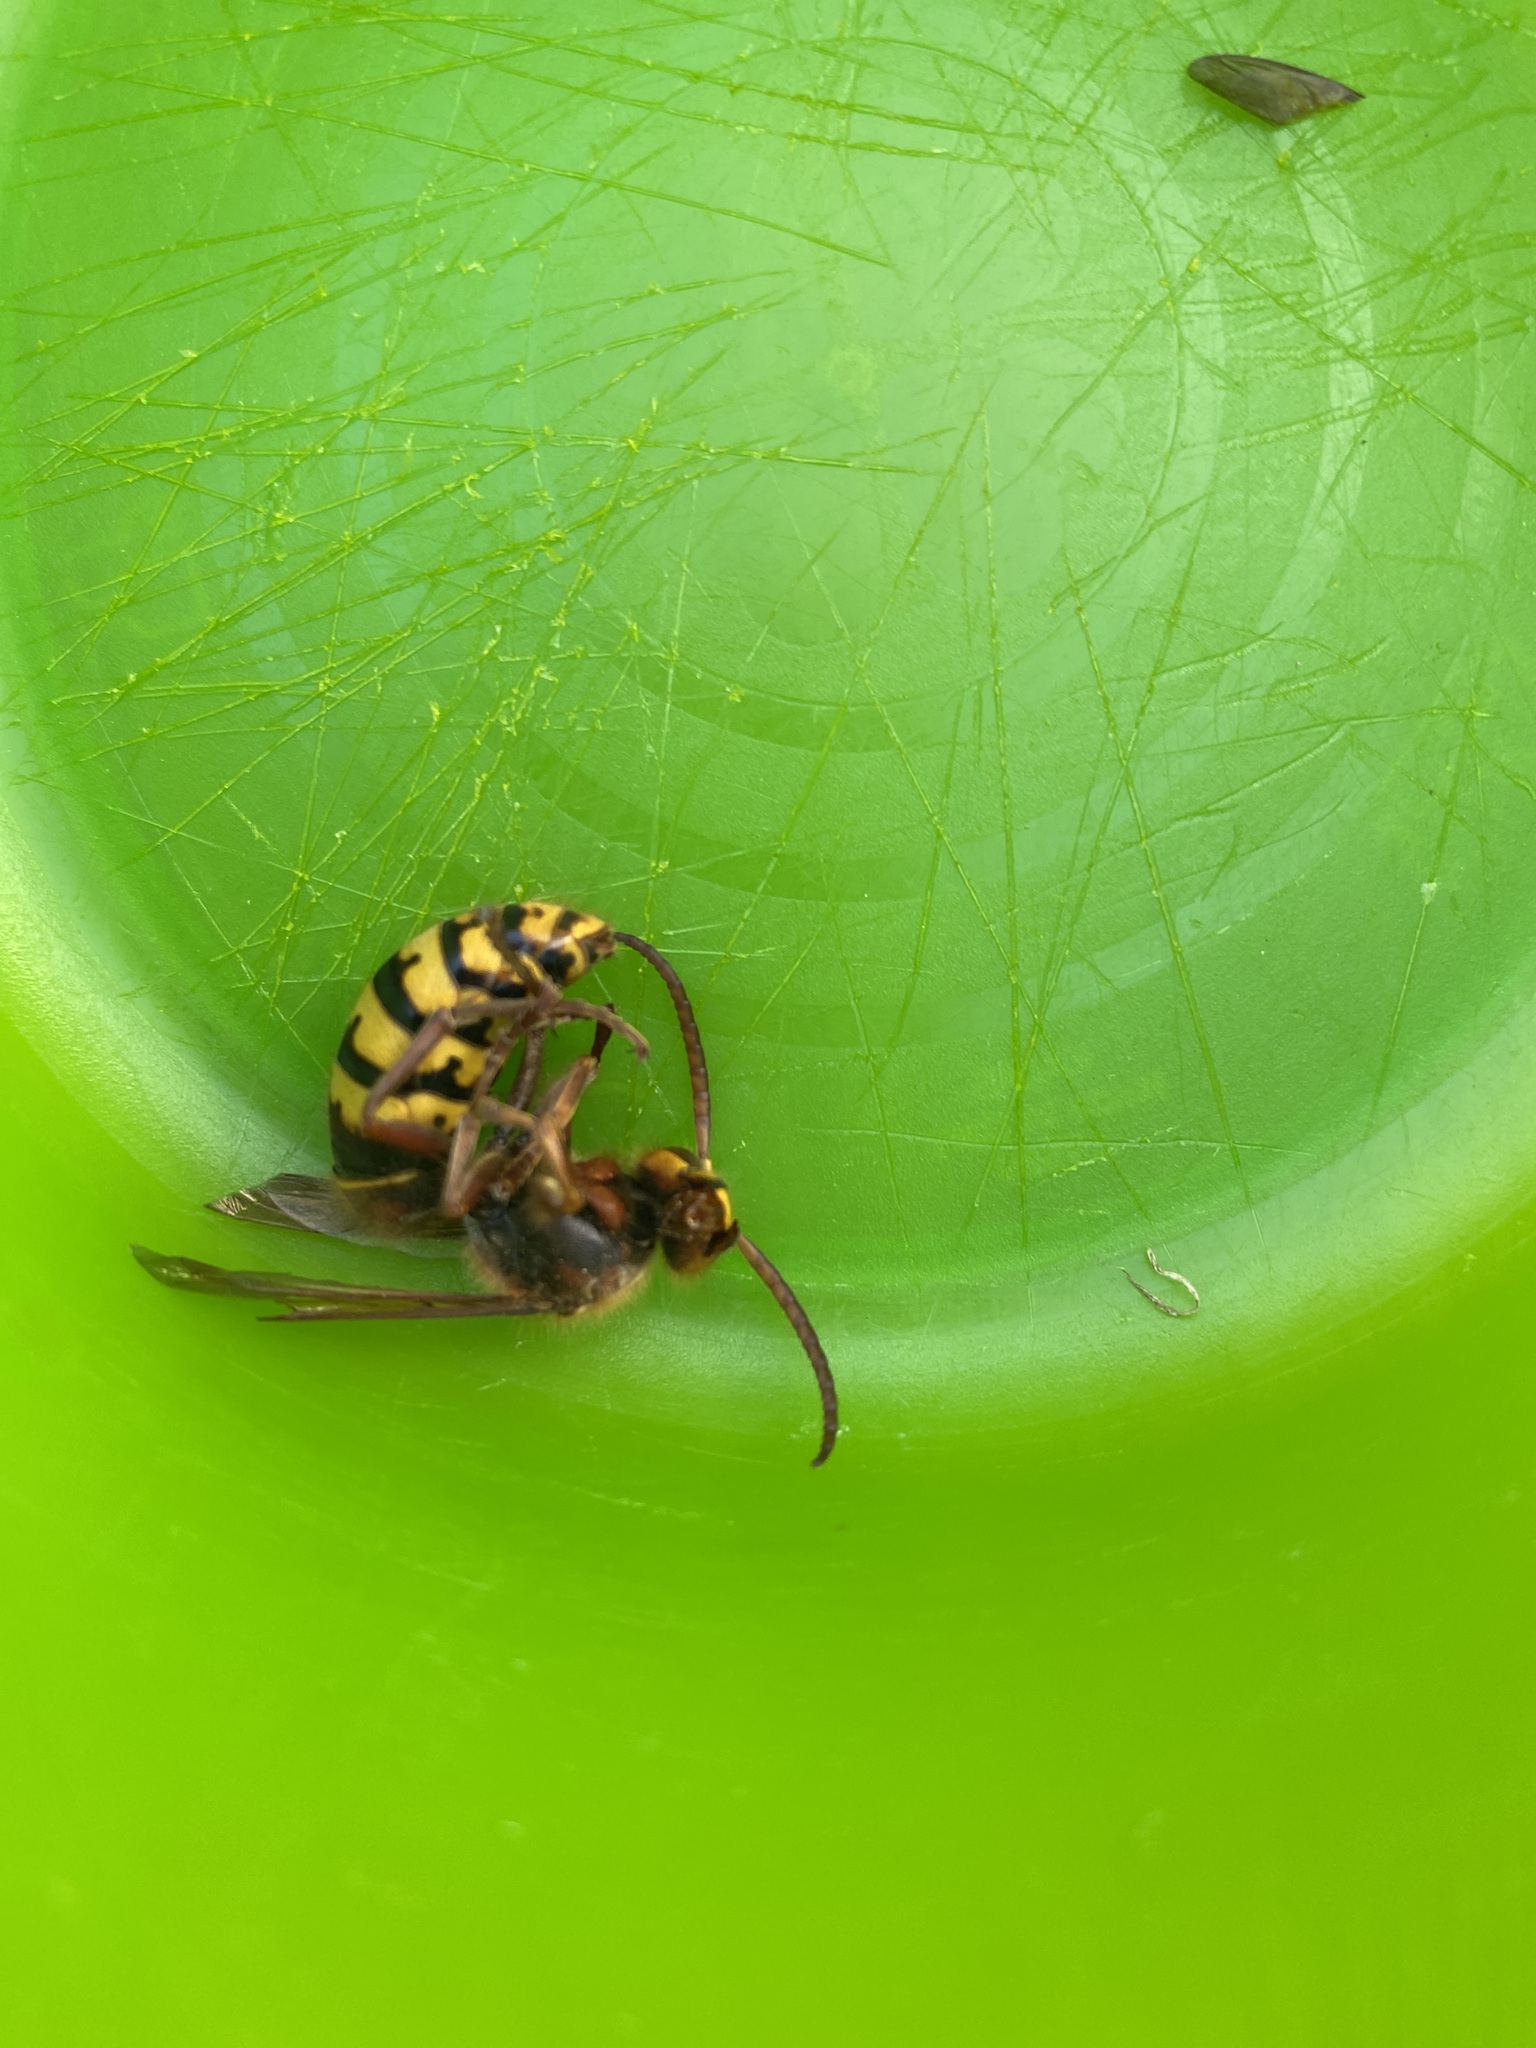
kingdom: Animalia
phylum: Arthropoda
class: Insecta
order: Hymenoptera
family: Vespidae
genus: Vespa
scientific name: Vespa crabro
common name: Hornet
